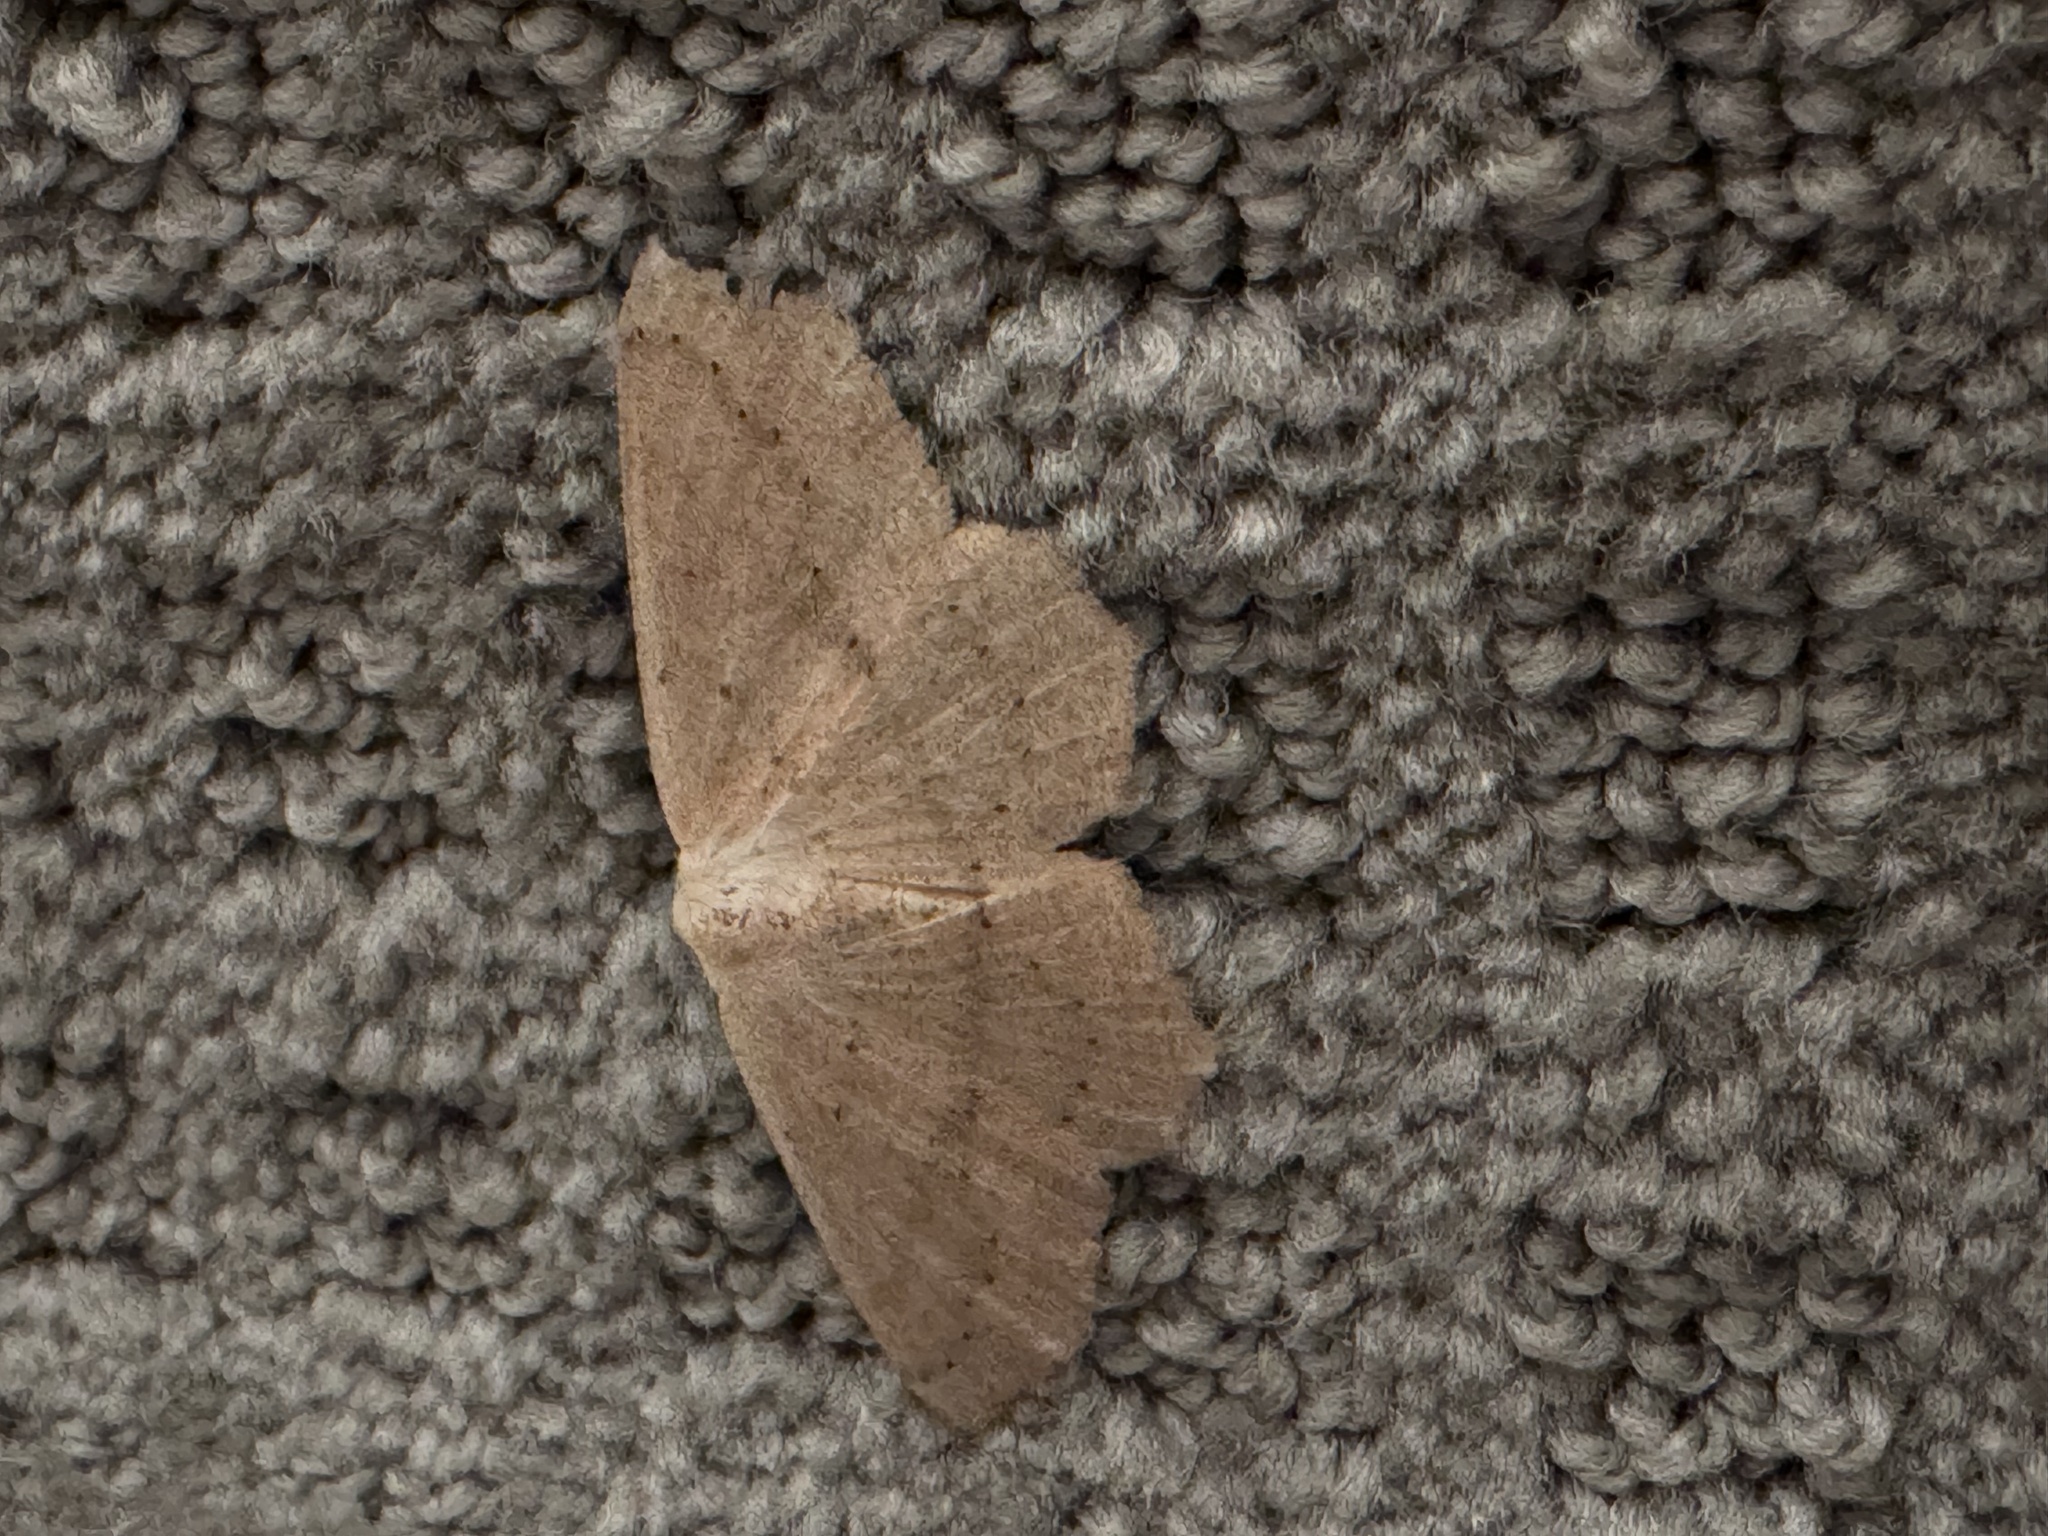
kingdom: Animalia
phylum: Arthropoda
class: Insecta
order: Lepidoptera
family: Geometridae
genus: Sabulodes
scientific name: Sabulodes aegrotata
